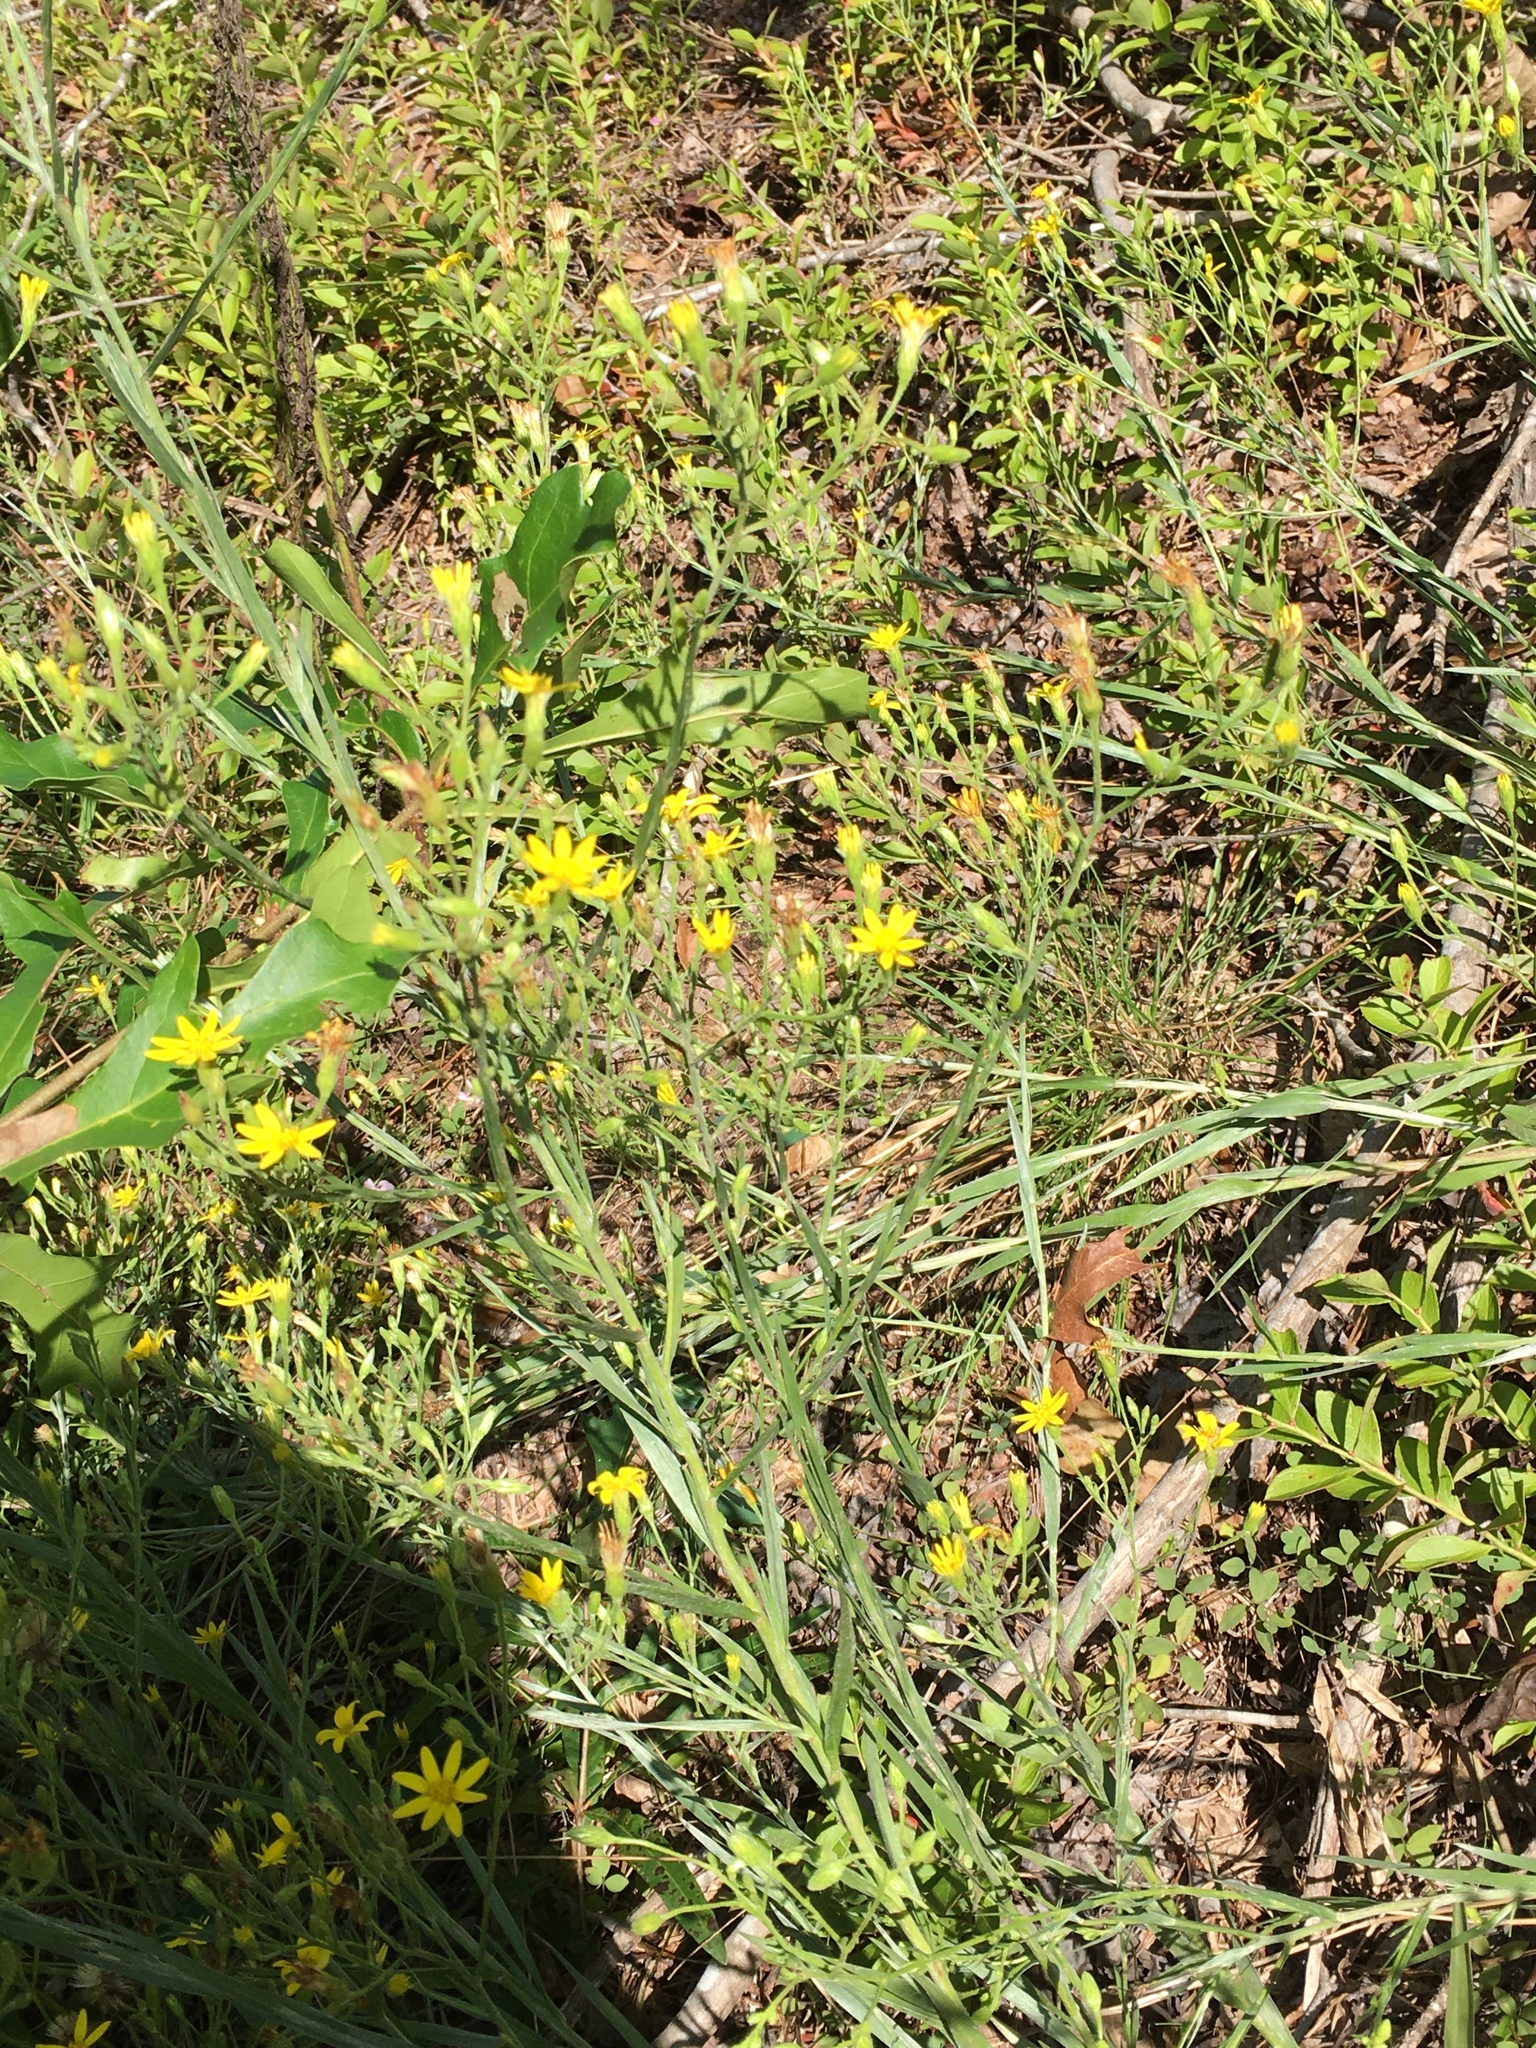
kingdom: Plantae
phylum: Tracheophyta
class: Magnoliopsida
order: Asterales
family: Asteraceae
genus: Pityopsis
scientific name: Pityopsis aspera
